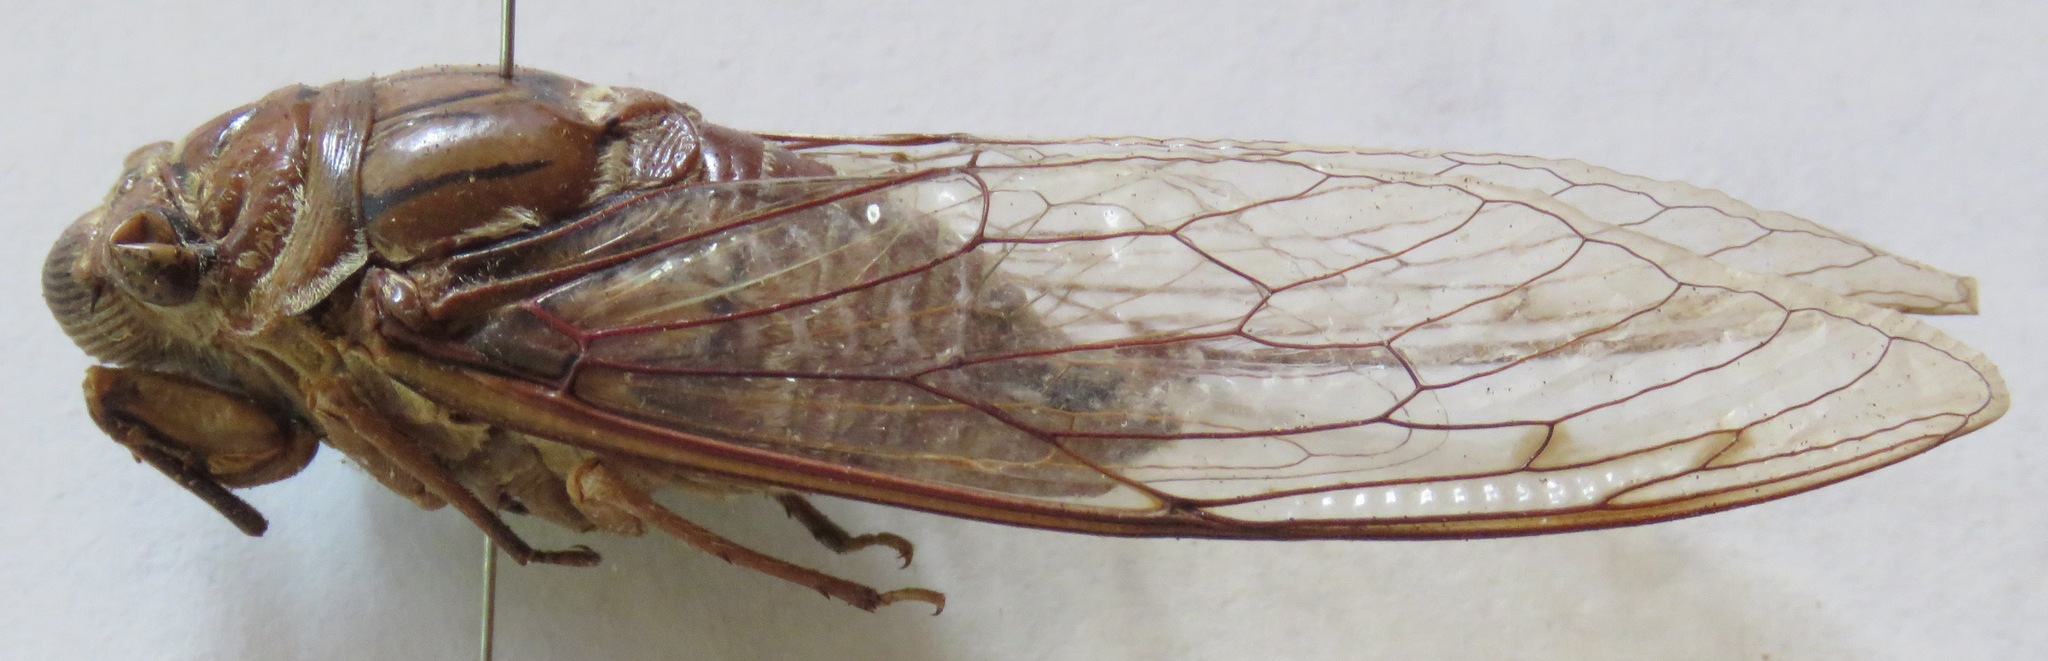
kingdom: Animalia
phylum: Arthropoda
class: Insecta
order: Hemiptera
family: Cicadidae
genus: Quesada
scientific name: Quesada gigas
